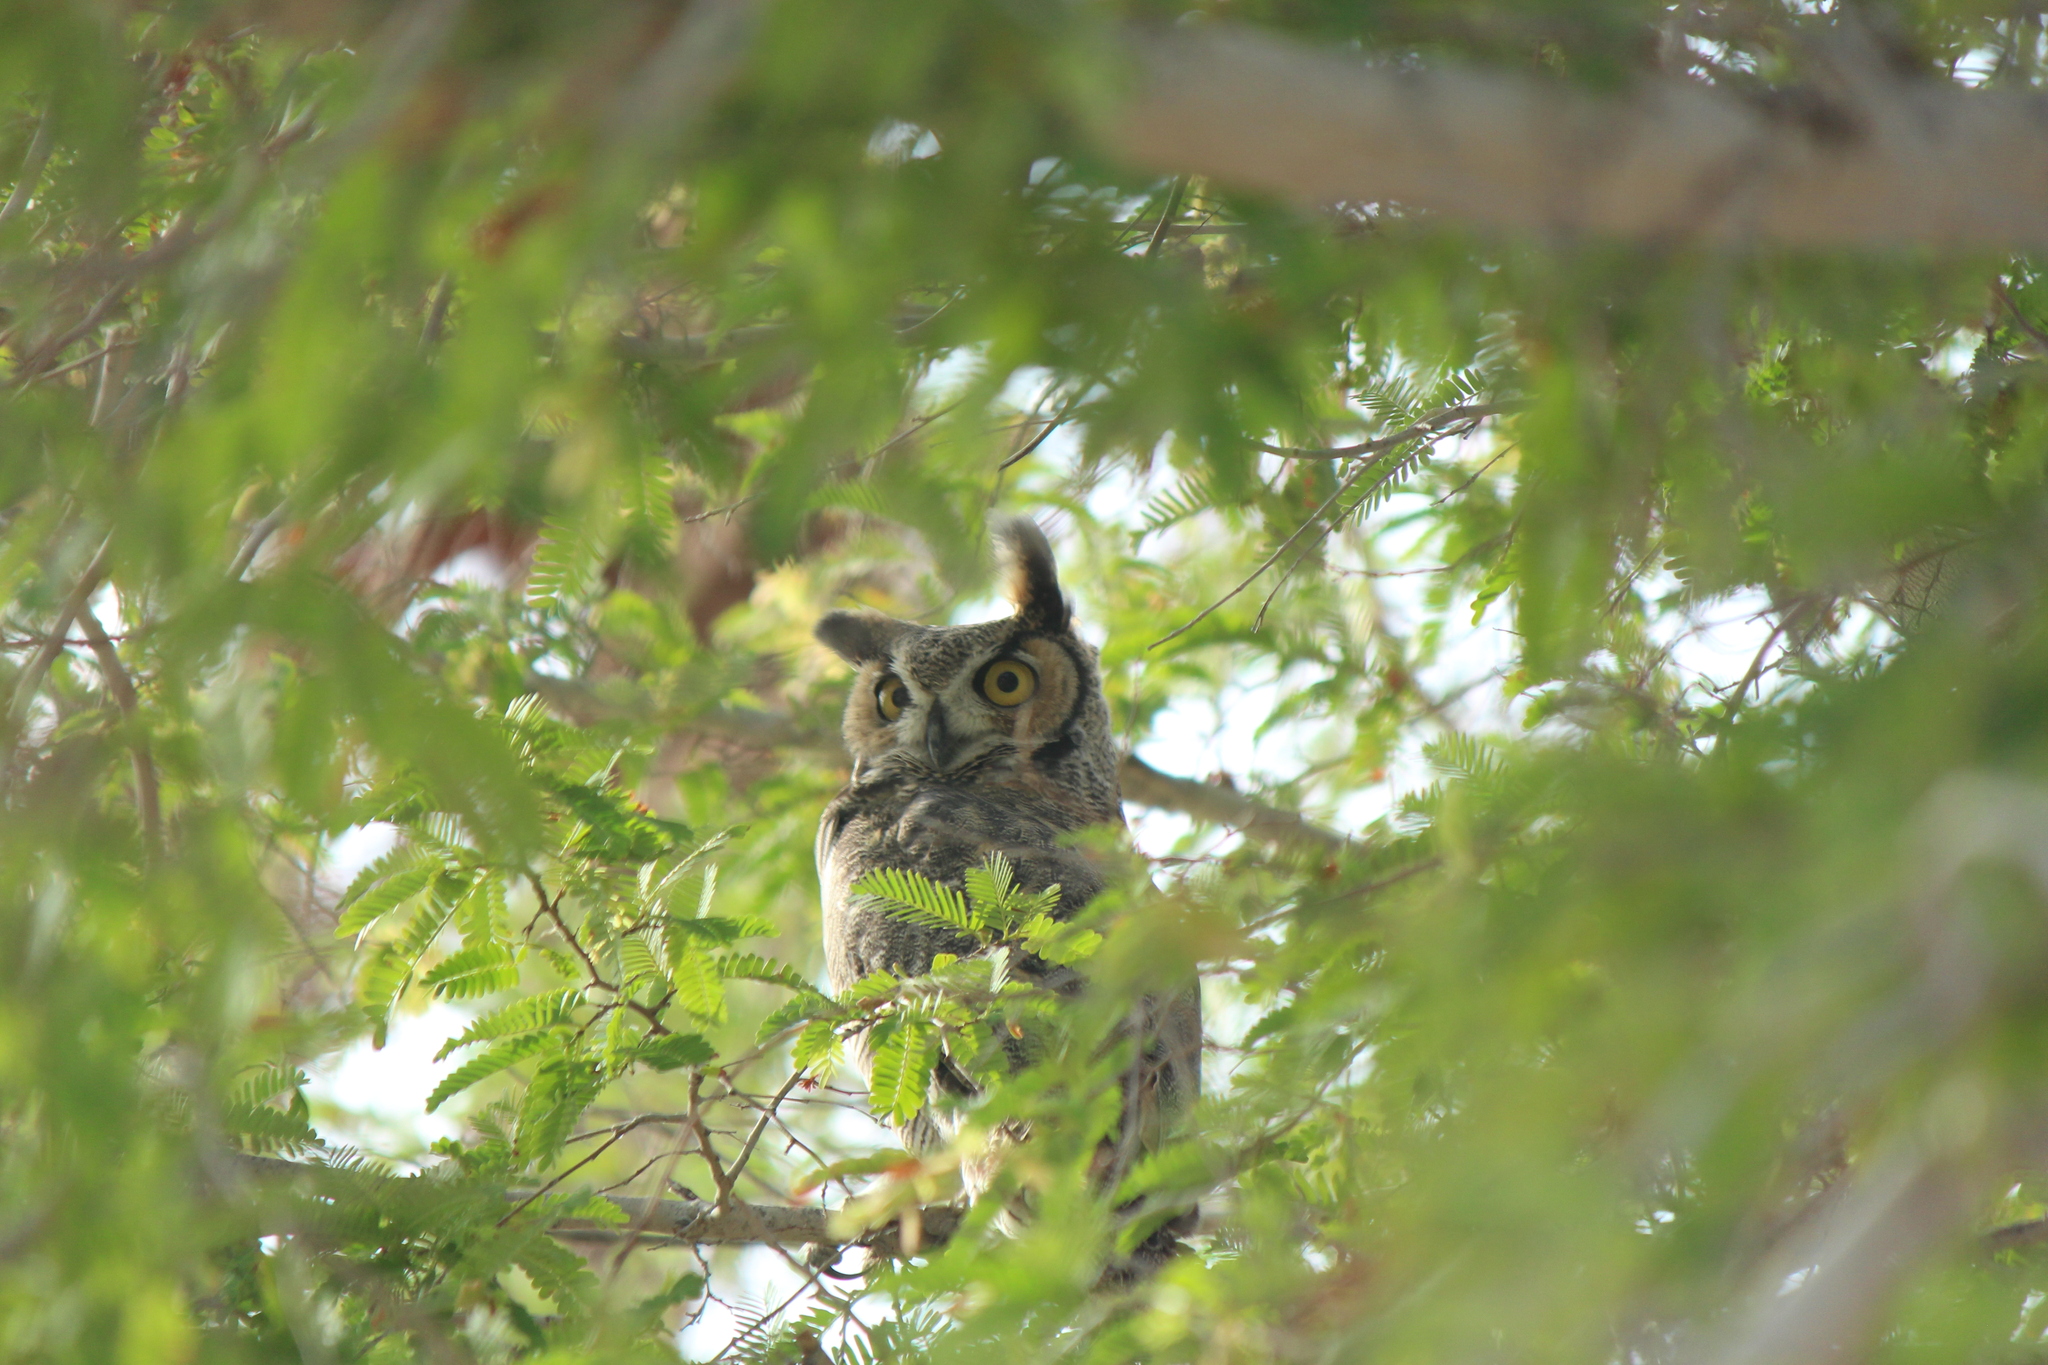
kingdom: Animalia
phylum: Chordata
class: Aves
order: Strigiformes
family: Strigidae
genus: Bubo
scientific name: Bubo virginianus
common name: Great horned owl
